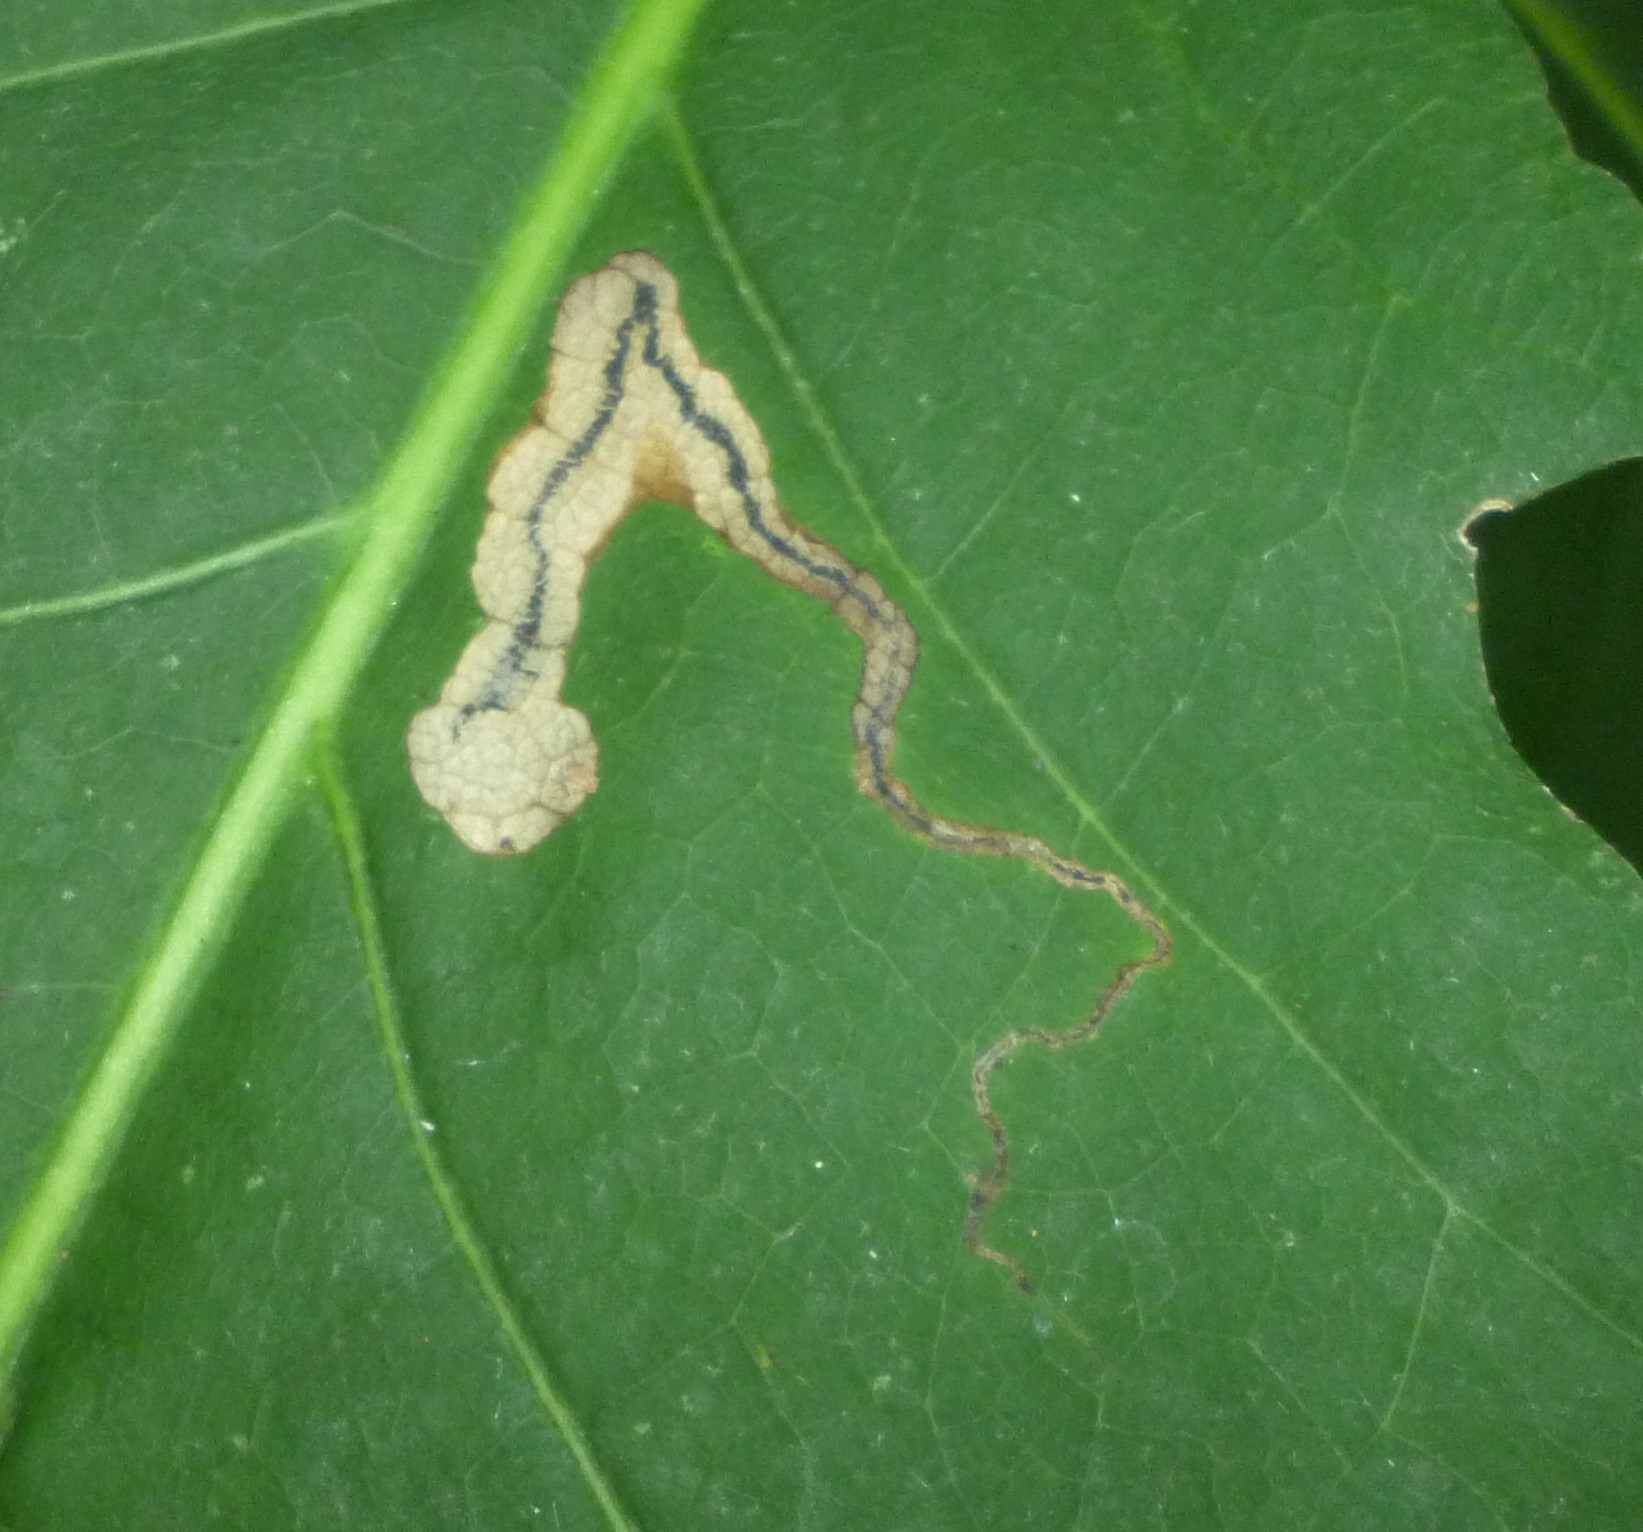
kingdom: Animalia
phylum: Arthropoda
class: Insecta
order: Lepidoptera
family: Nepticulidae
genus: Stigmella
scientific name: Stigmella quercipulchella
